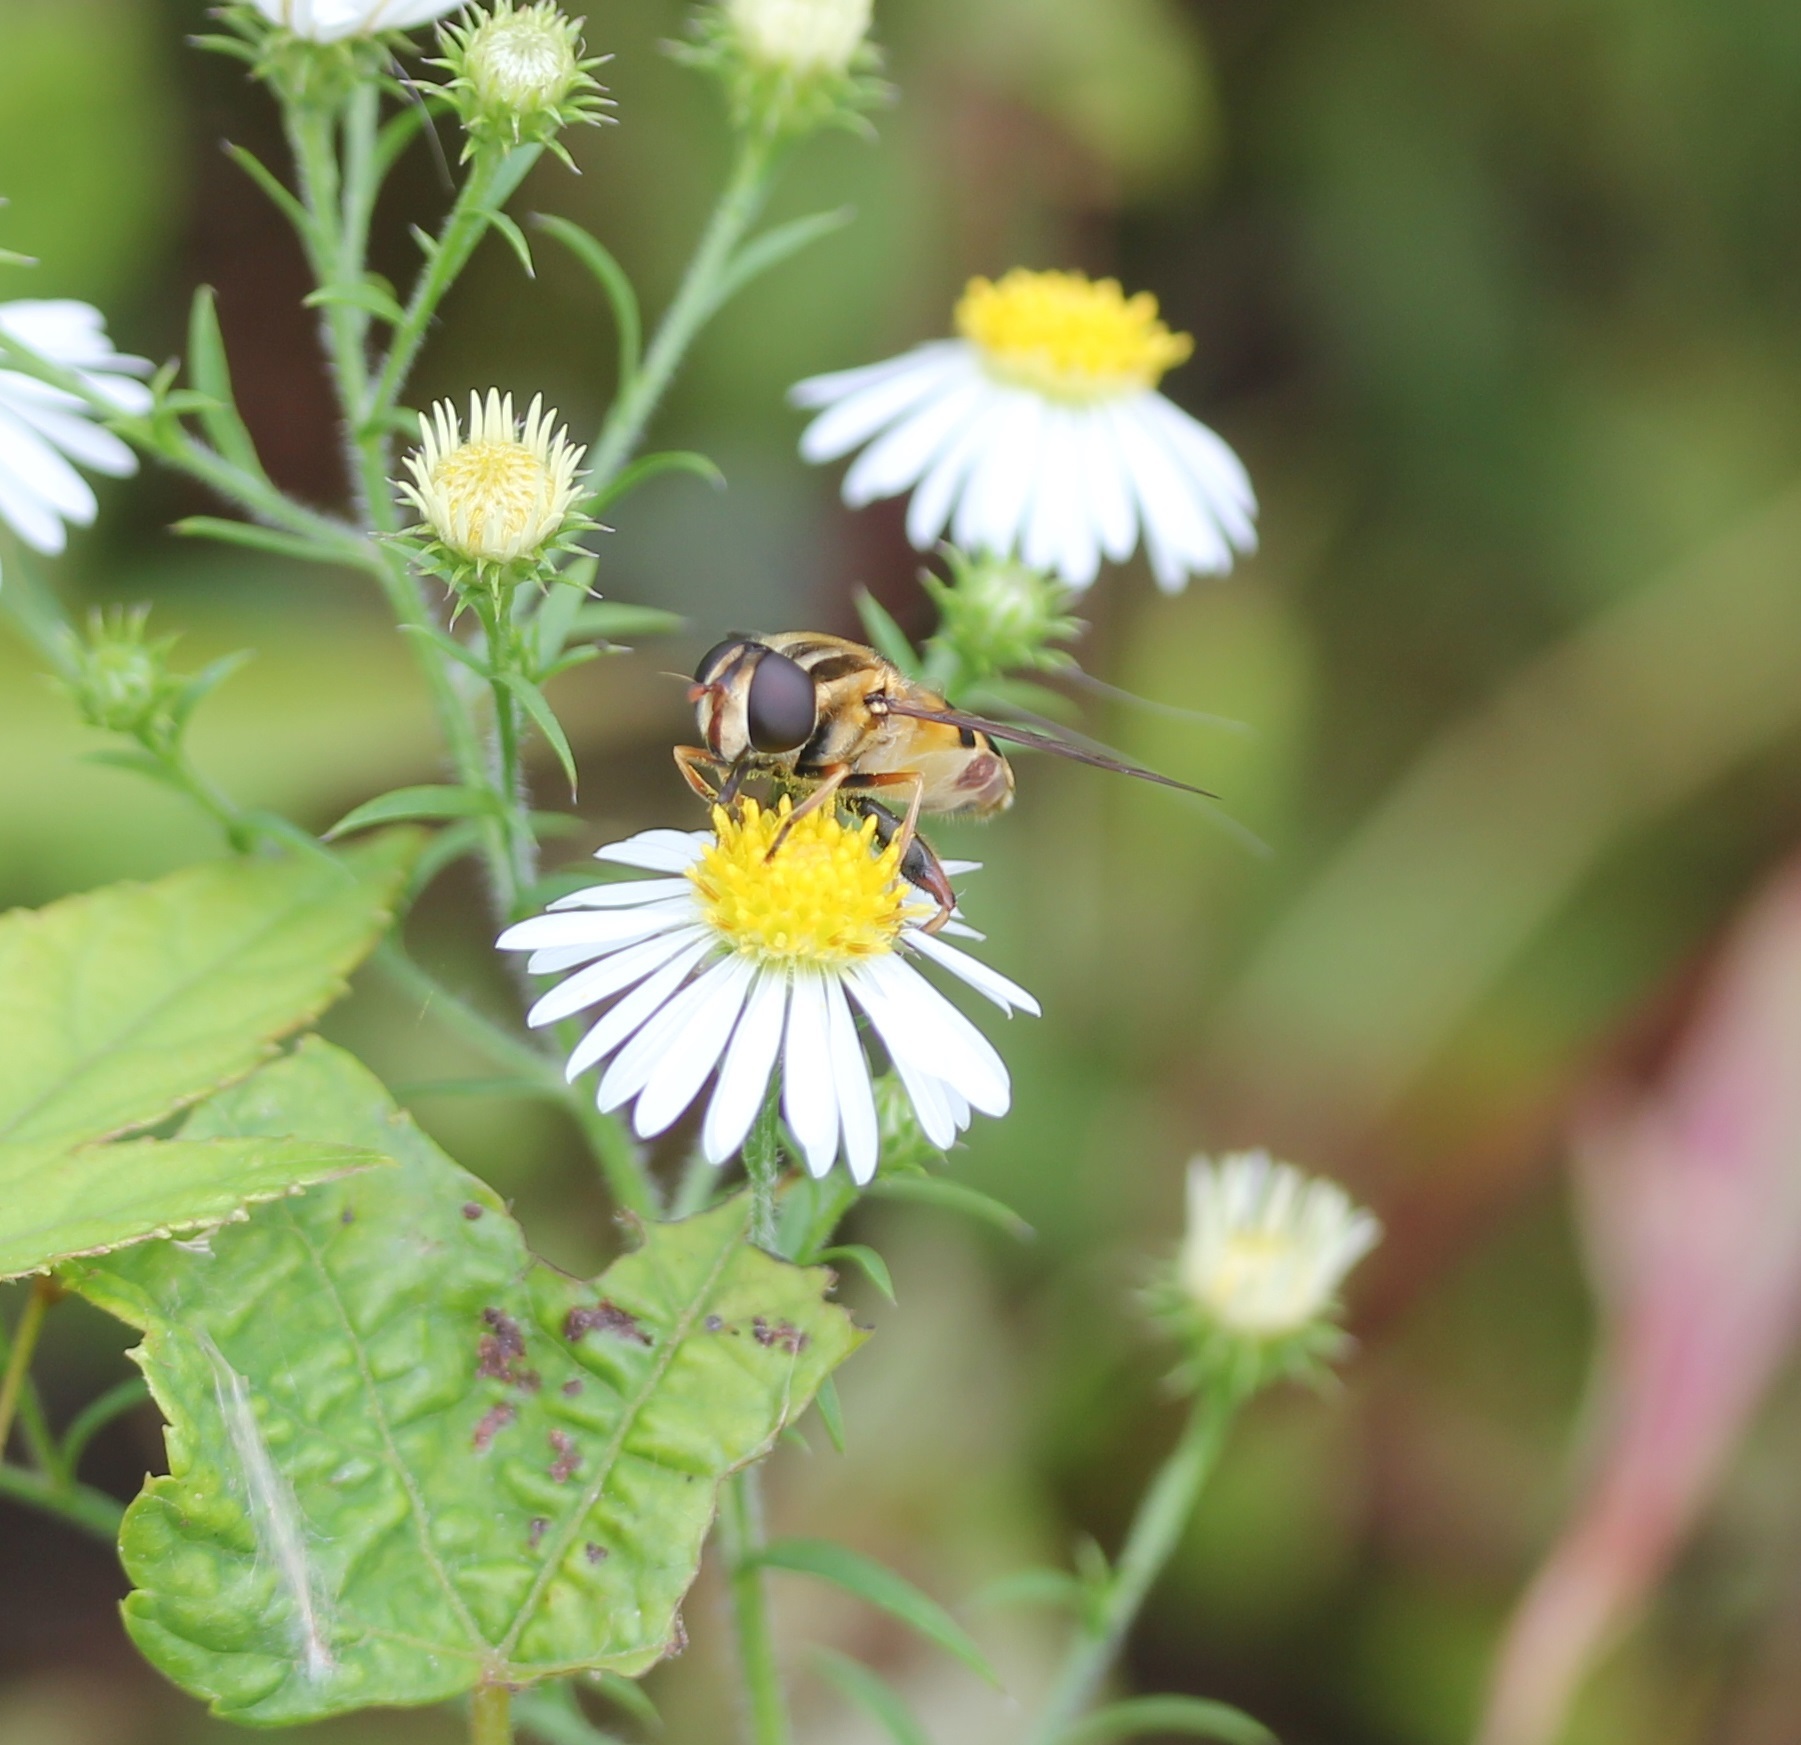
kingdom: Animalia
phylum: Arthropoda
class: Insecta
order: Diptera
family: Syrphidae
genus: Helophilus
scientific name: Helophilus fasciatus
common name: Narrow-headed marsh fly
